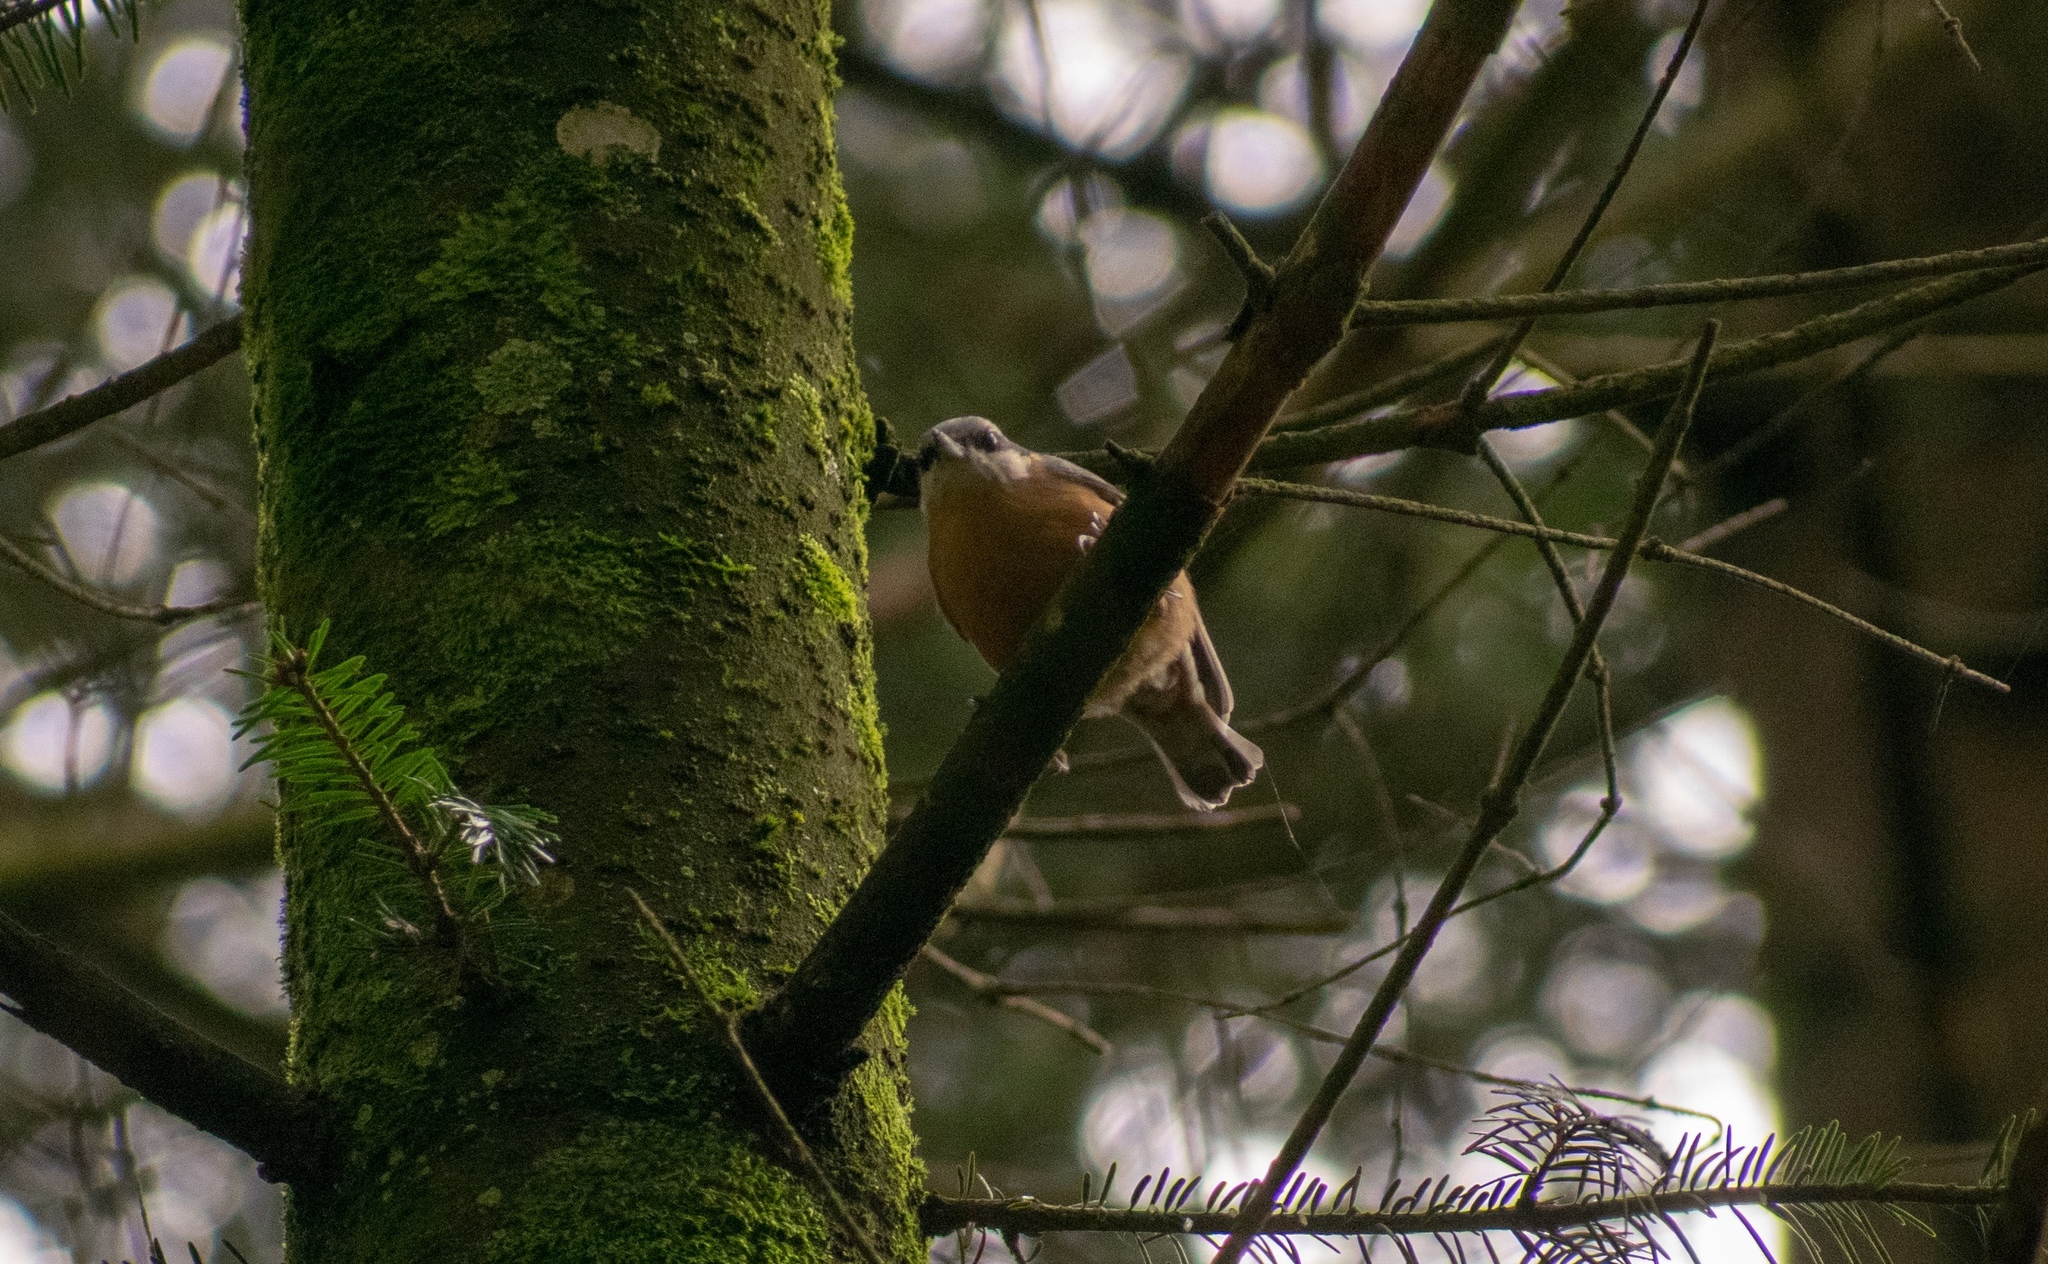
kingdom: Animalia
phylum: Chordata
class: Aves
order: Passeriformes
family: Sittidae
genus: Sitta
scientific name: Sitta europaea
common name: Eurasian nuthatch
